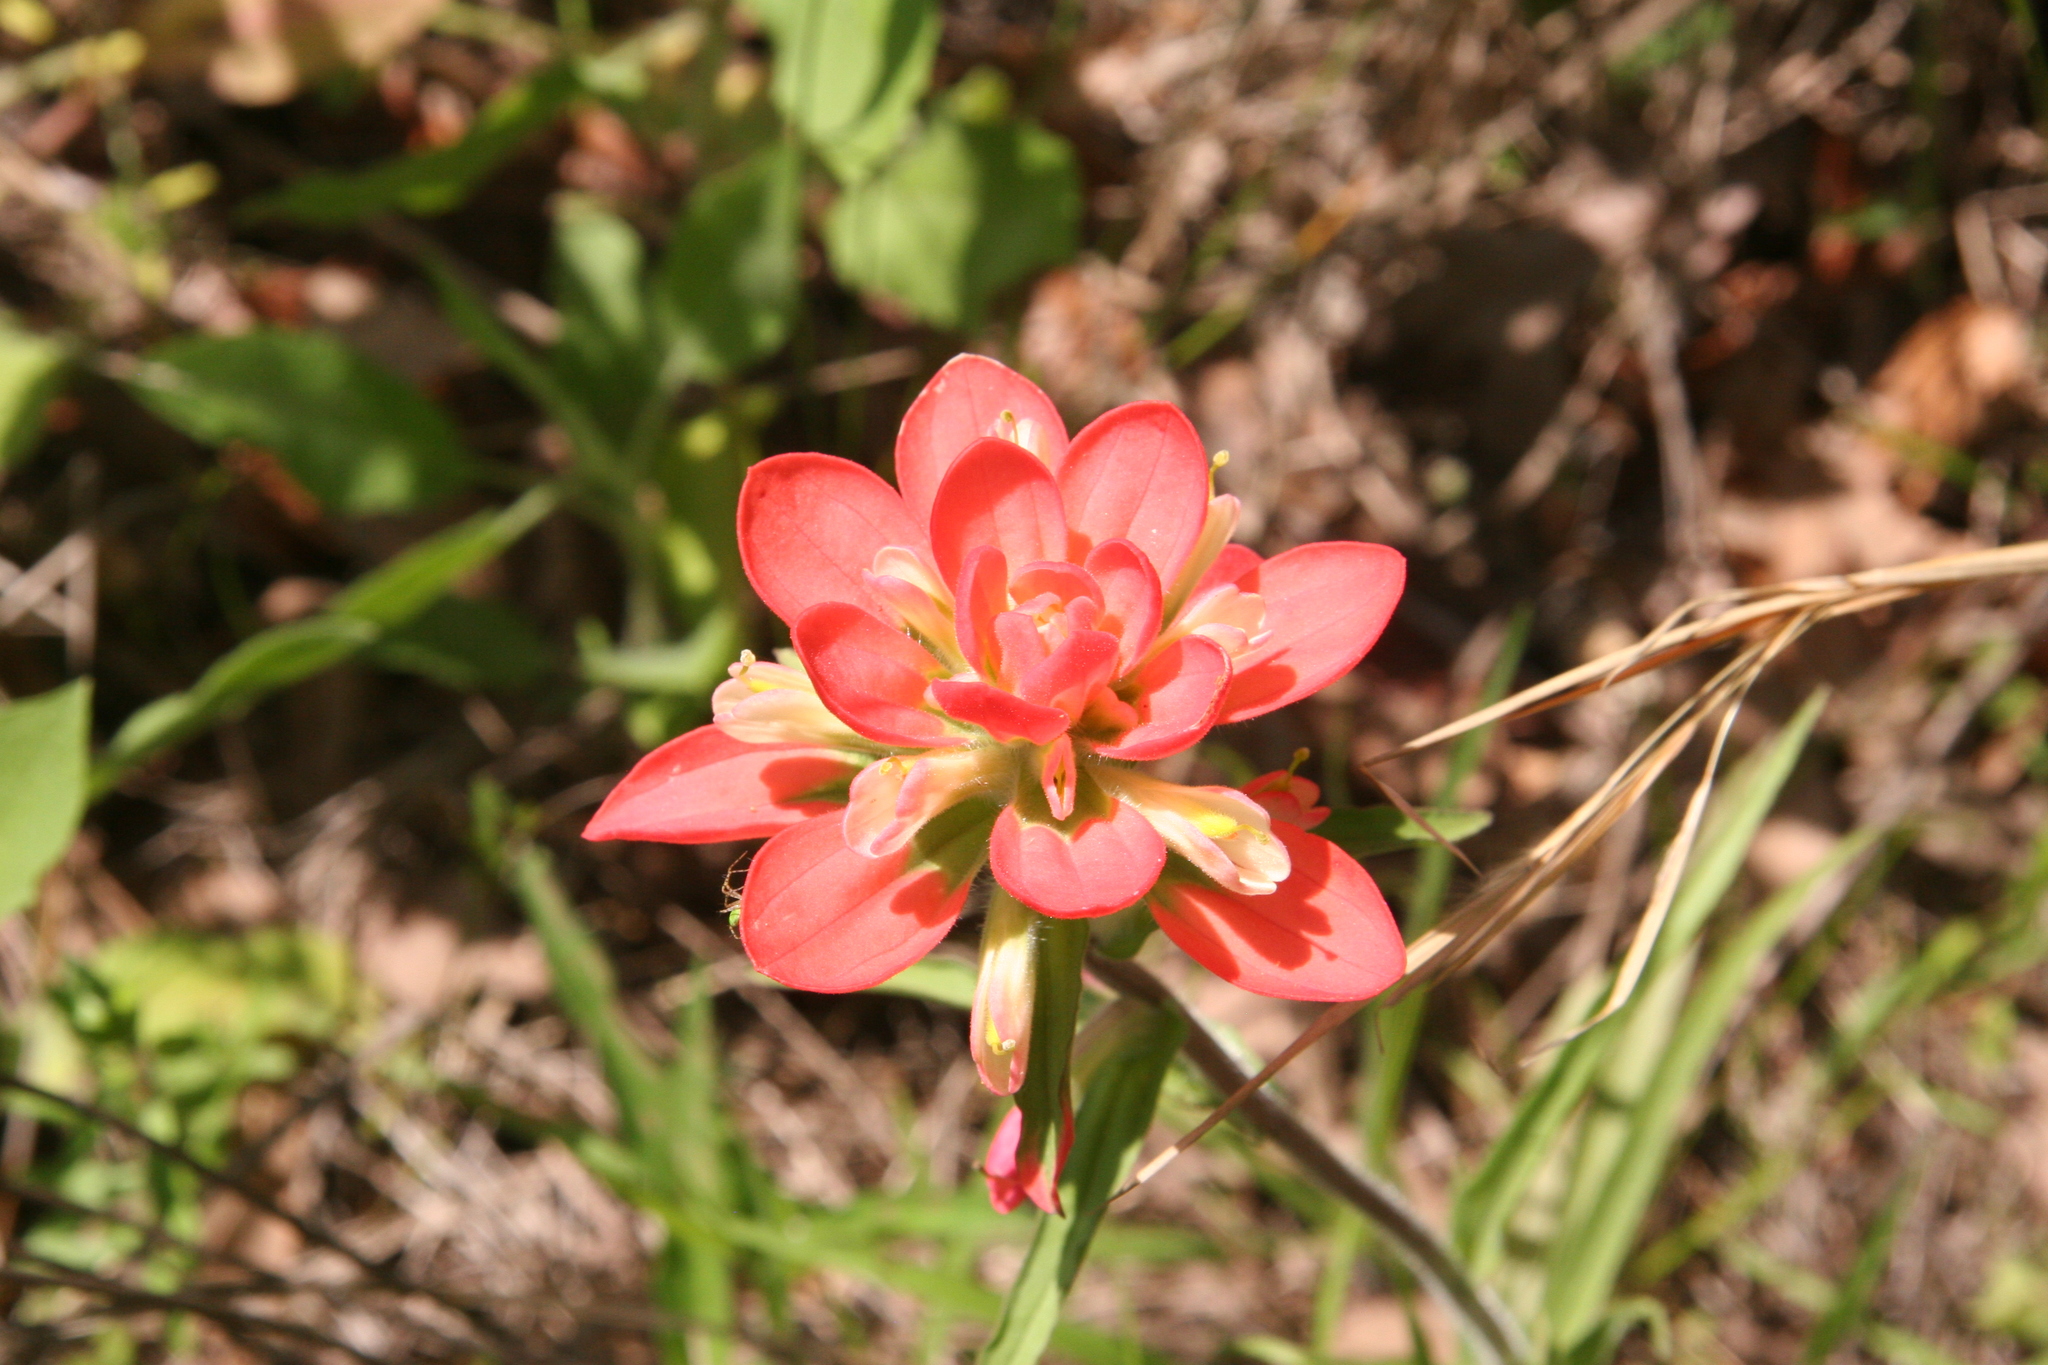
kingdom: Plantae
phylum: Tracheophyta
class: Magnoliopsida
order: Lamiales
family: Orobanchaceae
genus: Castilleja
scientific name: Castilleja indivisa
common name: Texas paintbrush
